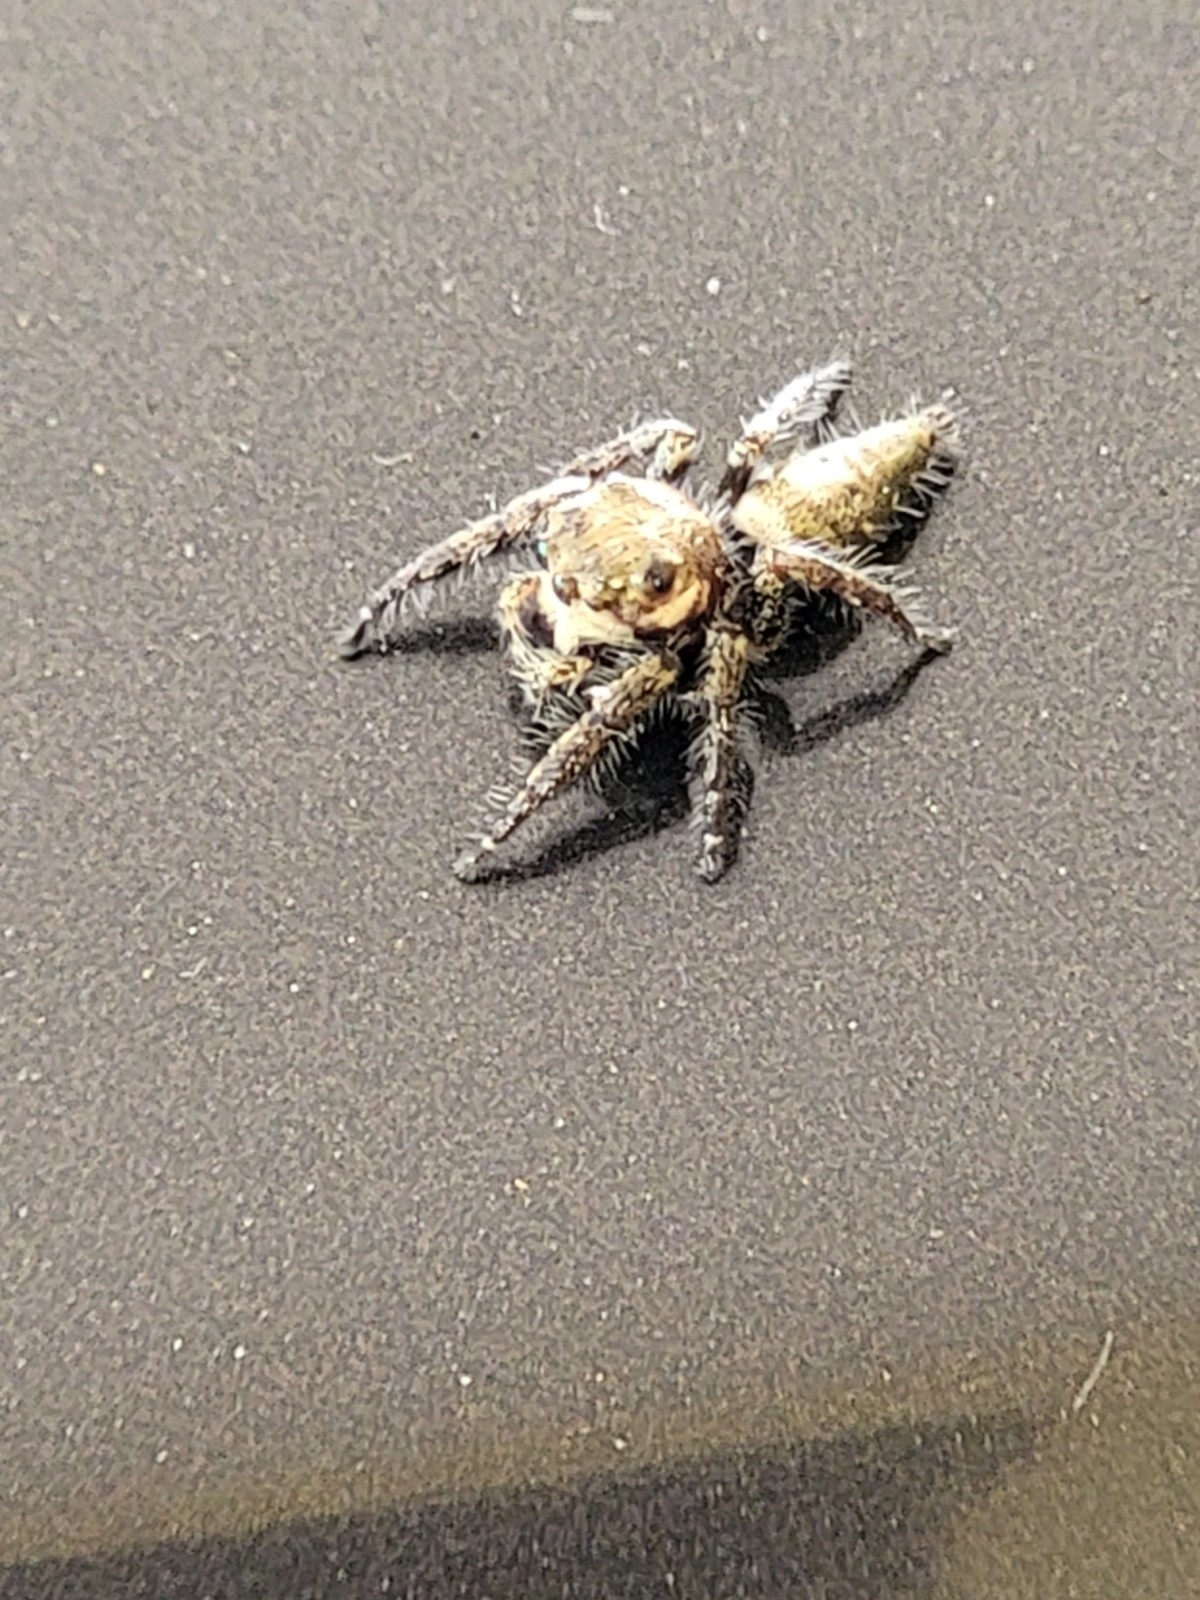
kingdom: Animalia
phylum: Arthropoda
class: Arachnida
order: Araneae
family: Salticidae
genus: Hyllus
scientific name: Hyllus semicupreus
